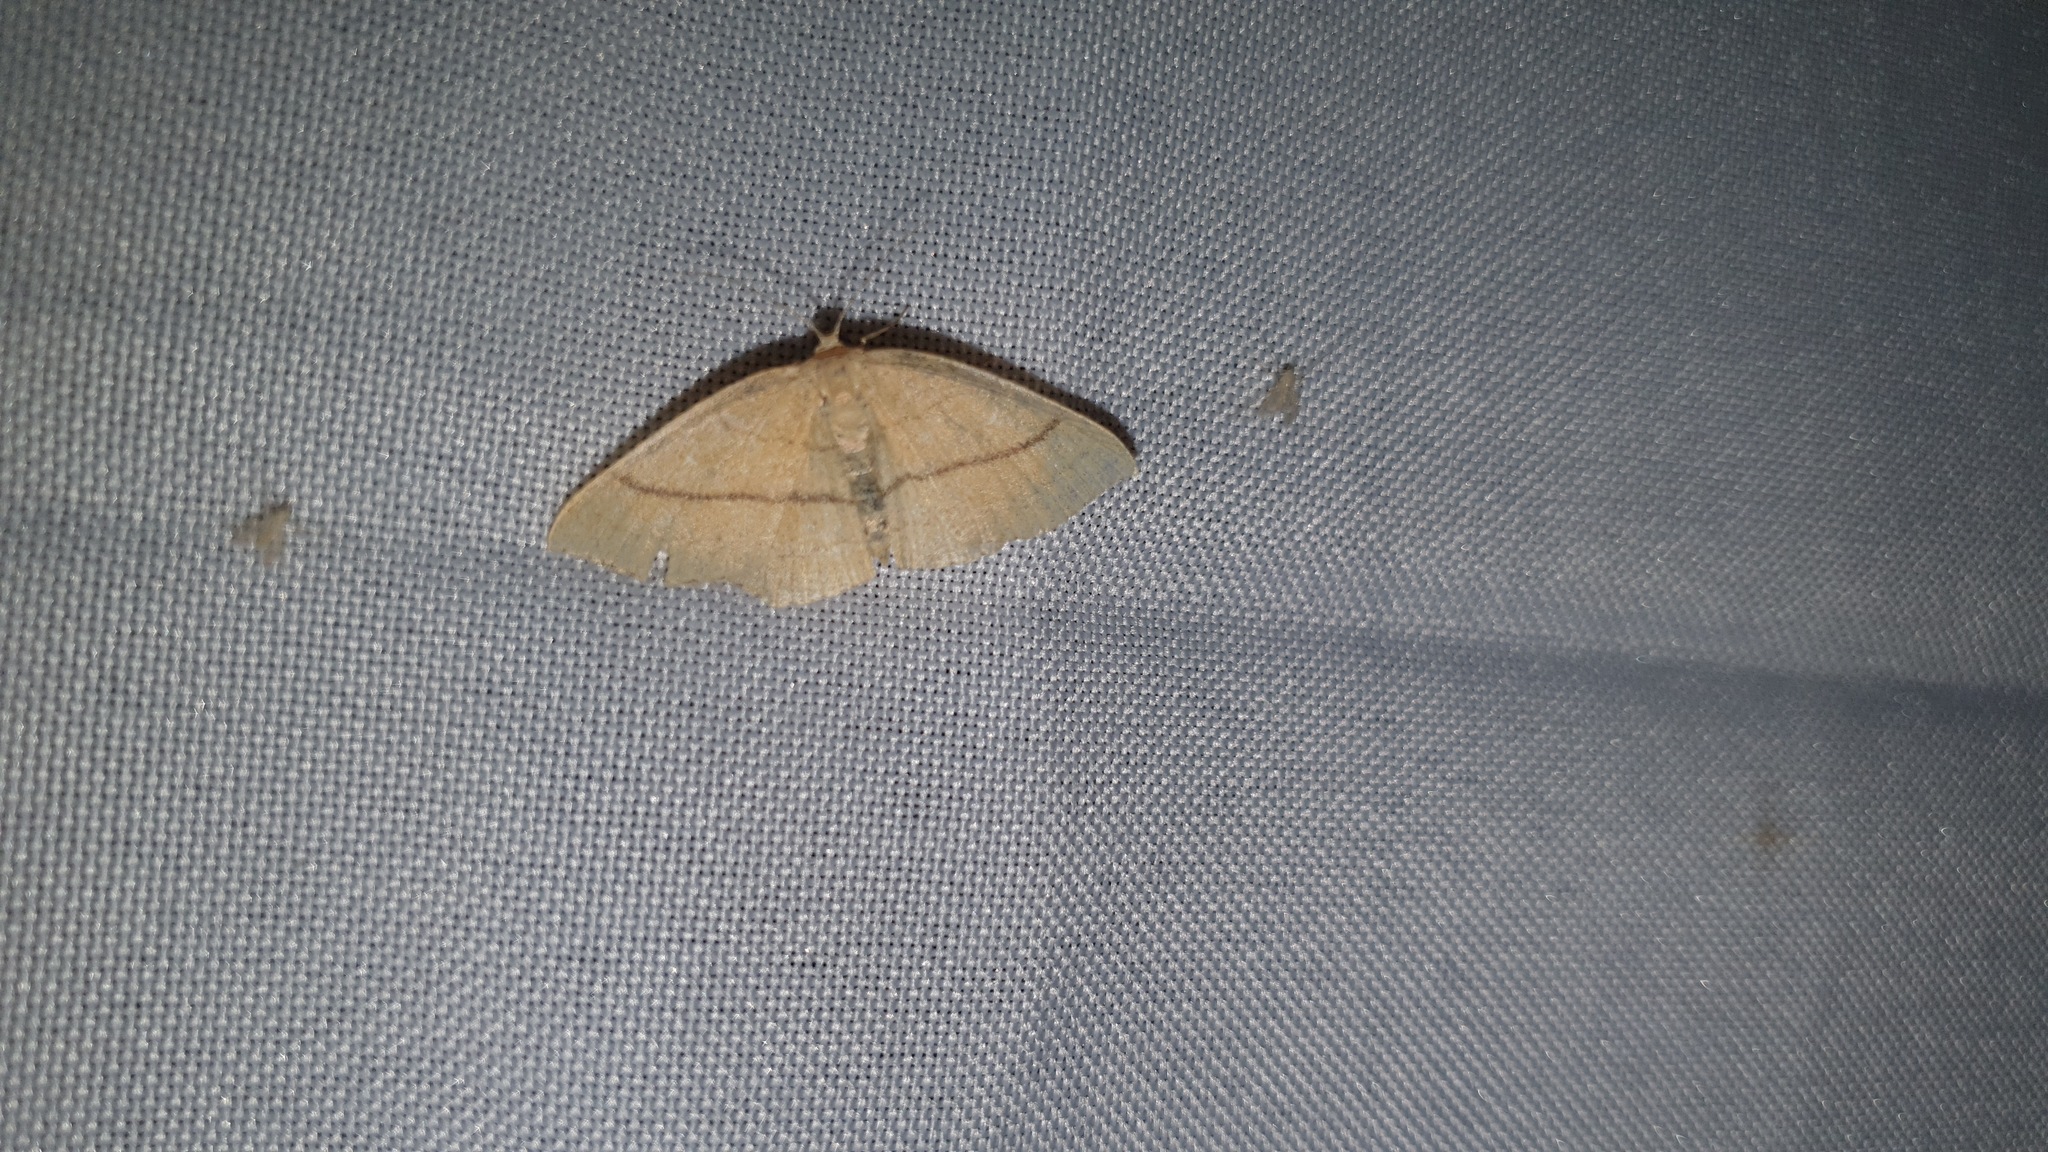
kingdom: Animalia
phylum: Arthropoda
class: Insecta
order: Lepidoptera
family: Geometridae
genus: Cyclophora
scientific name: Cyclophora linearia
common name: Clay triple-lines
